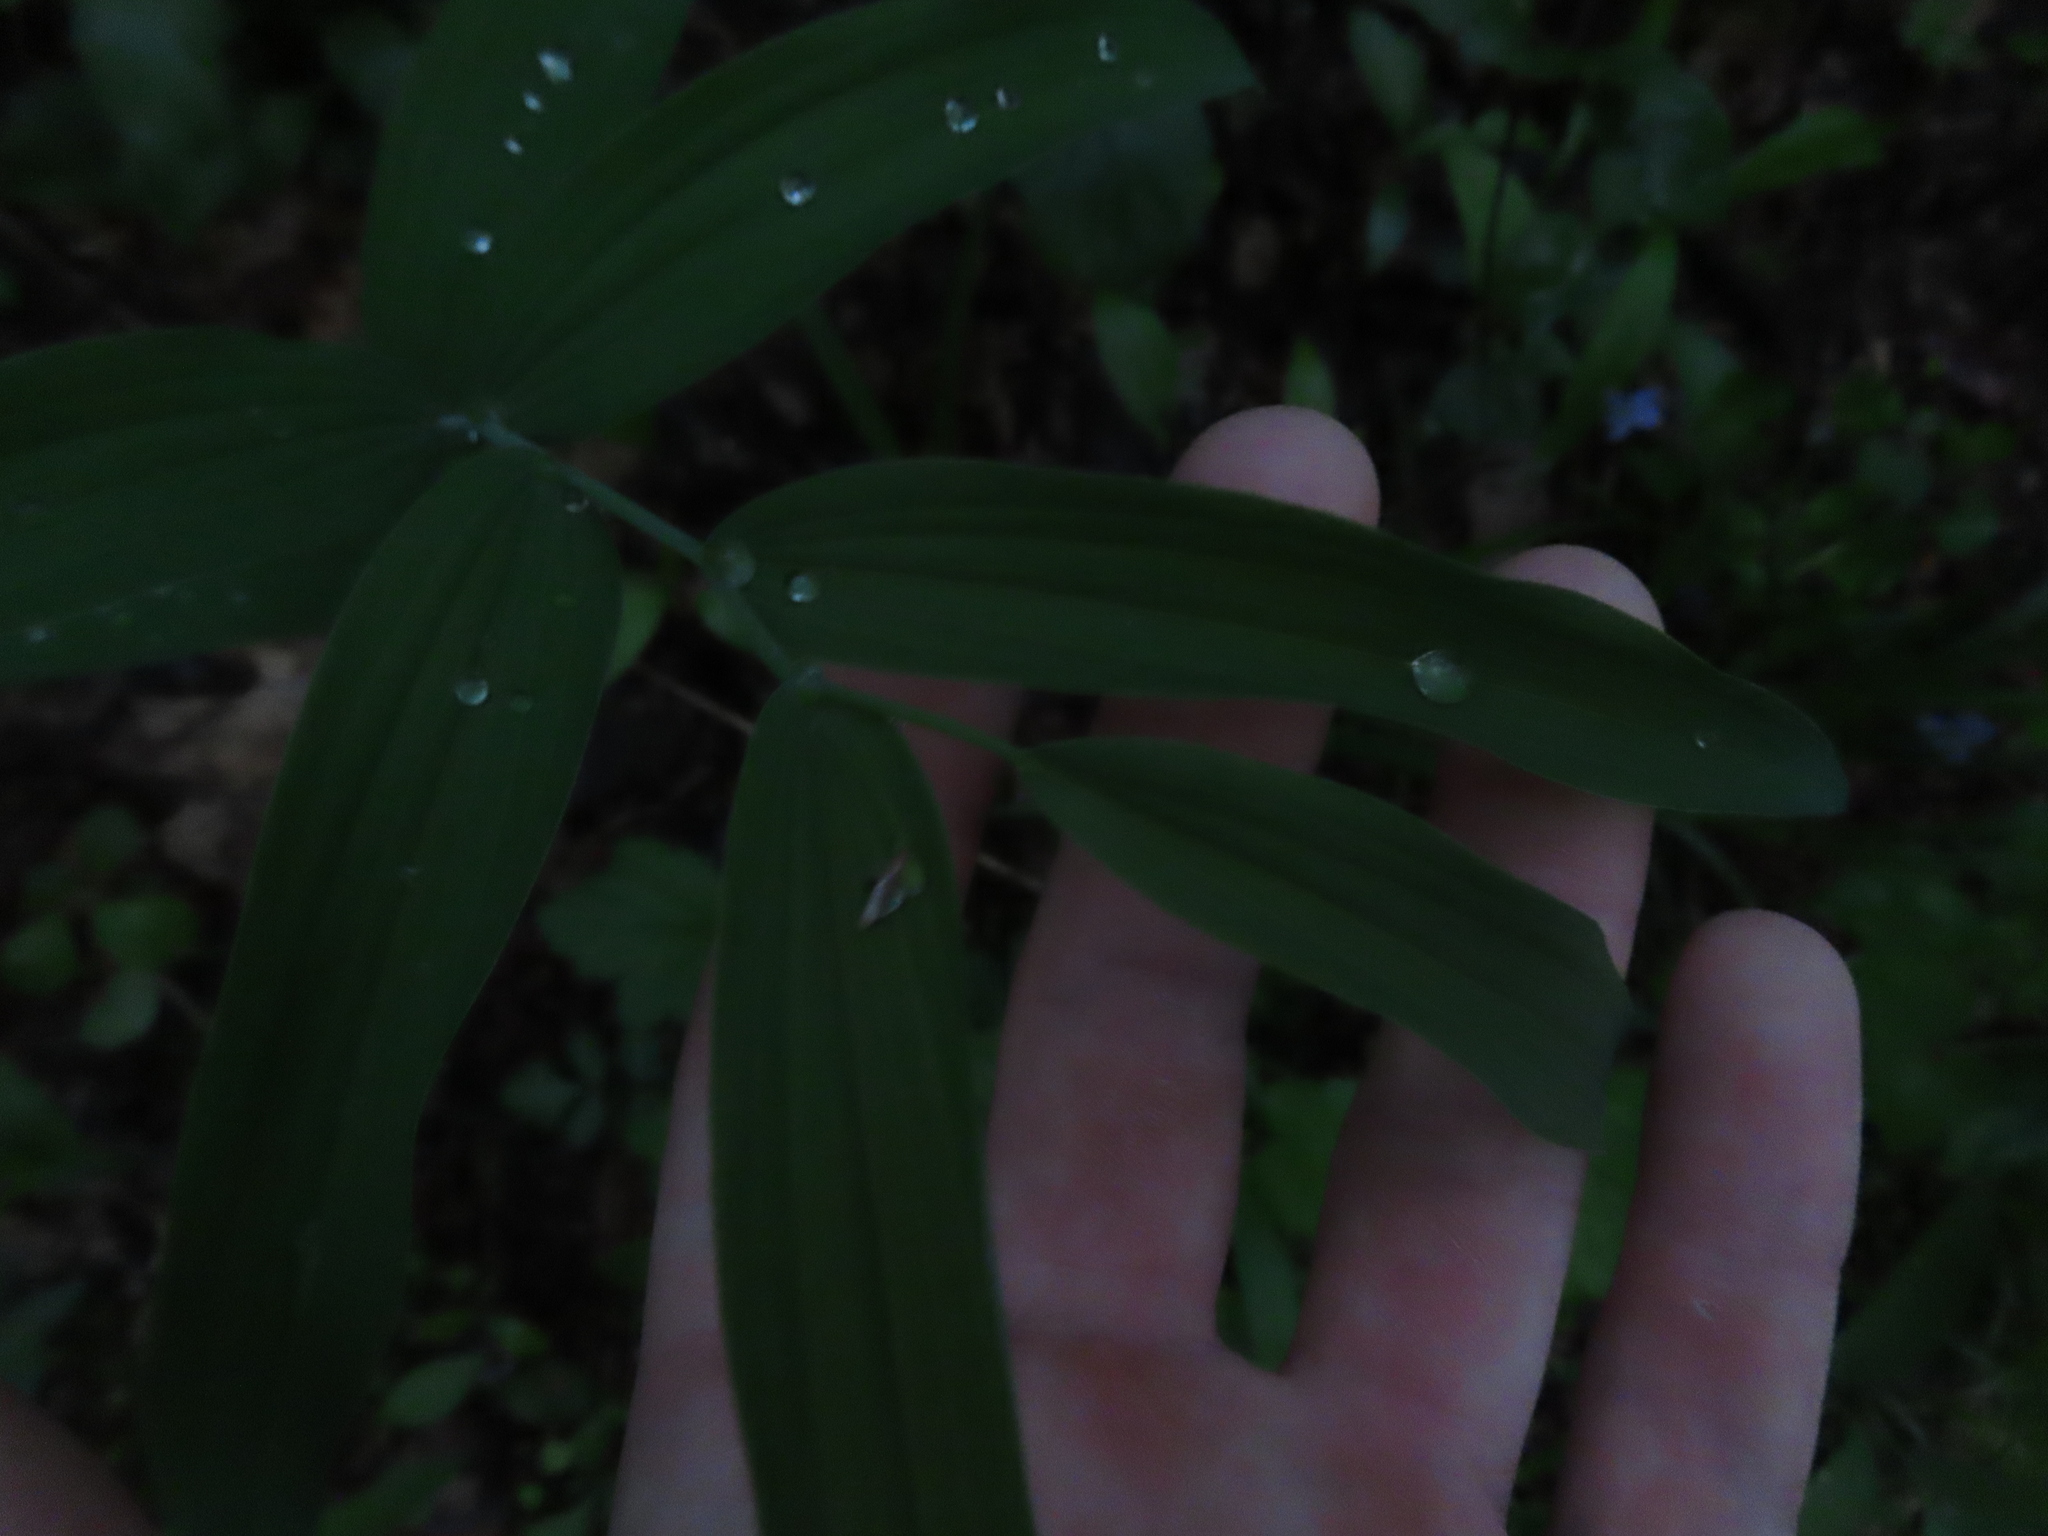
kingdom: Plantae
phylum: Tracheophyta
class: Liliopsida
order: Asparagales
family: Asparagaceae
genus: Polygonatum
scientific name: Polygonatum biflorum
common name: American solomon's-seal
